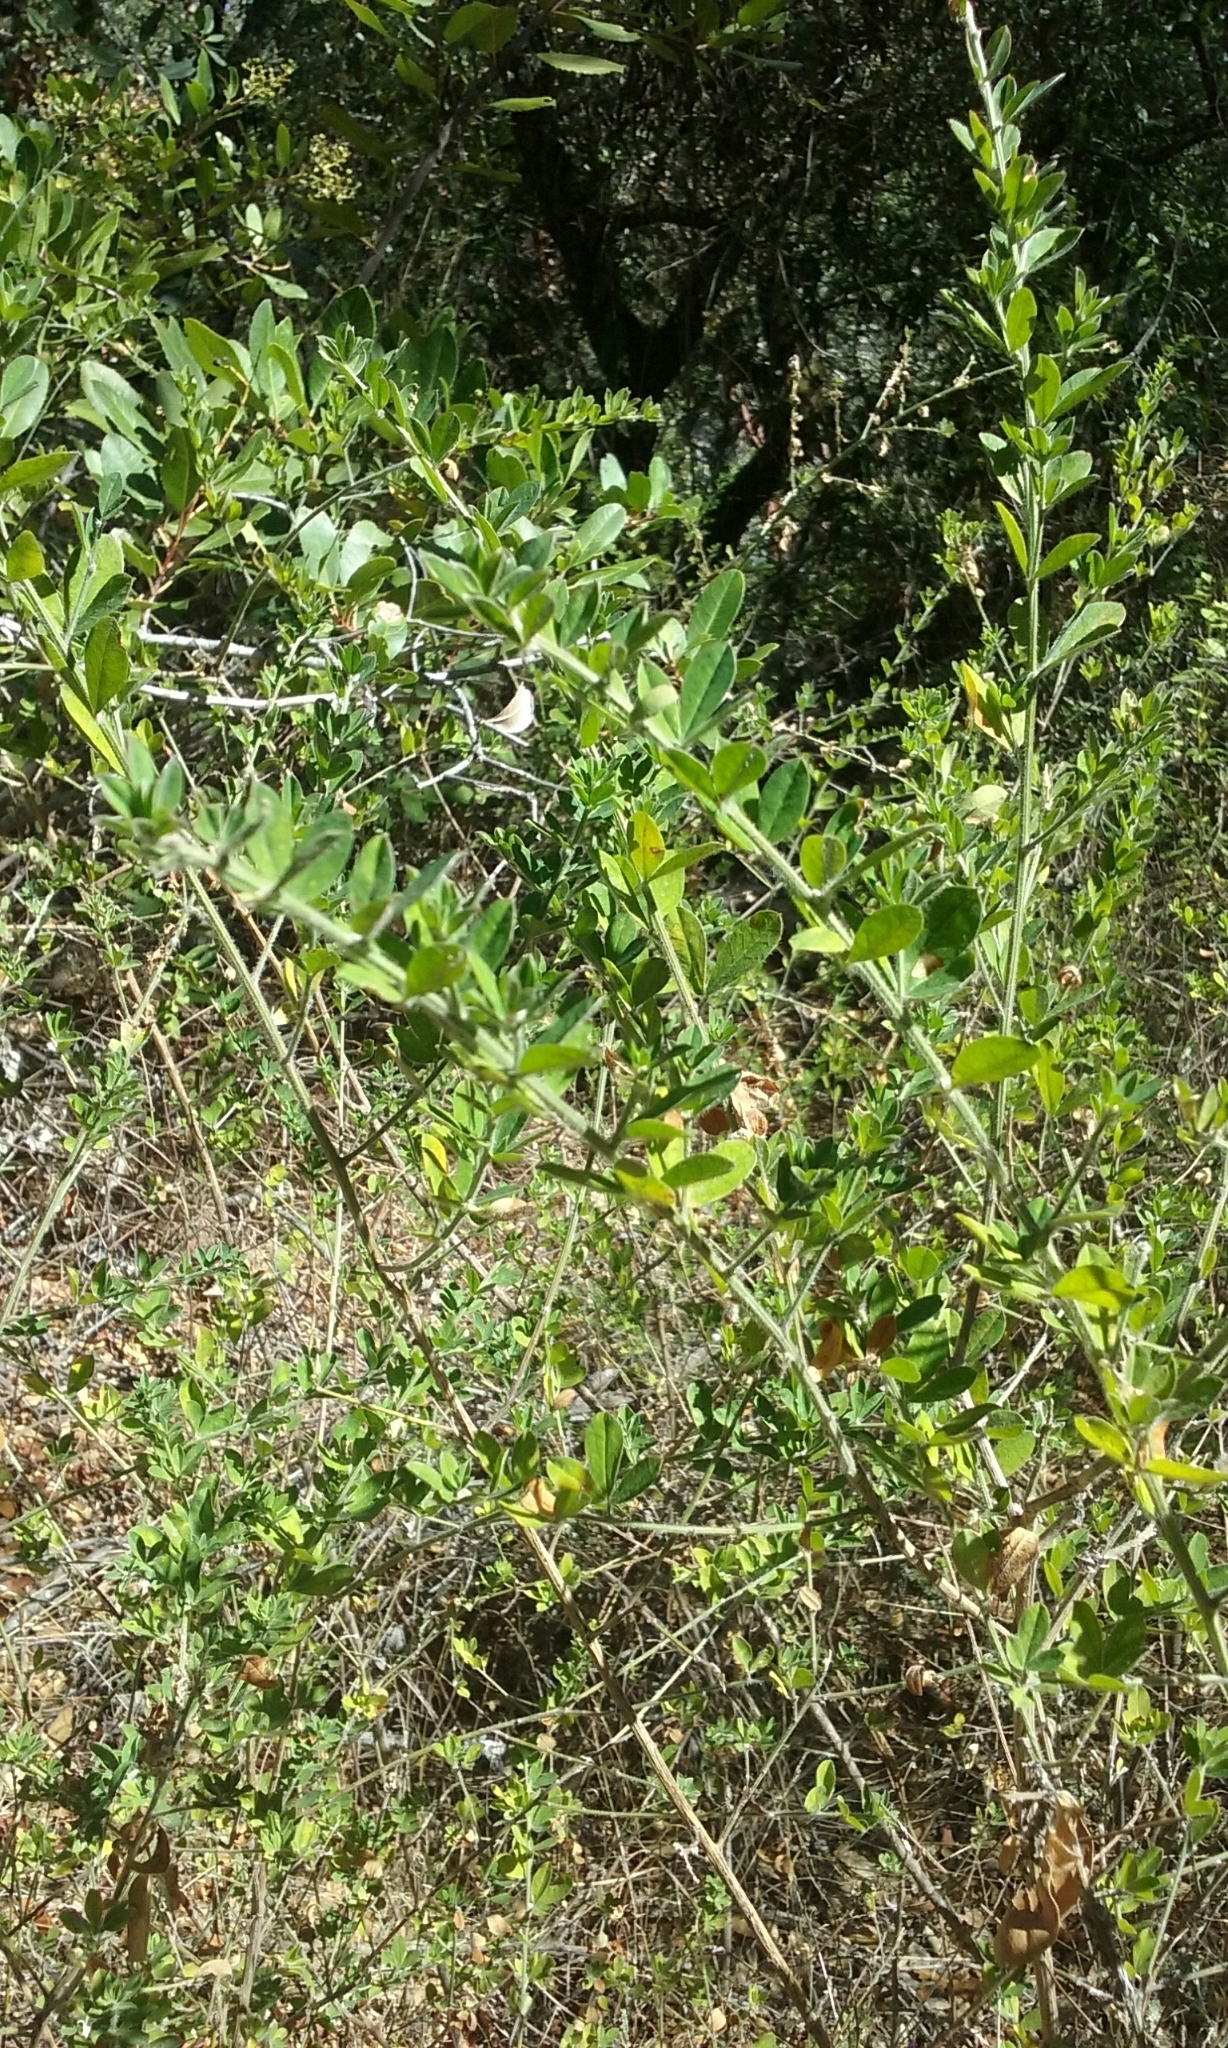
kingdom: Plantae
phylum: Tracheophyta
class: Magnoliopsida
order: Fabales
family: Fabaceae
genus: Genista
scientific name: Genista monspessulana
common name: Montpellier broom
